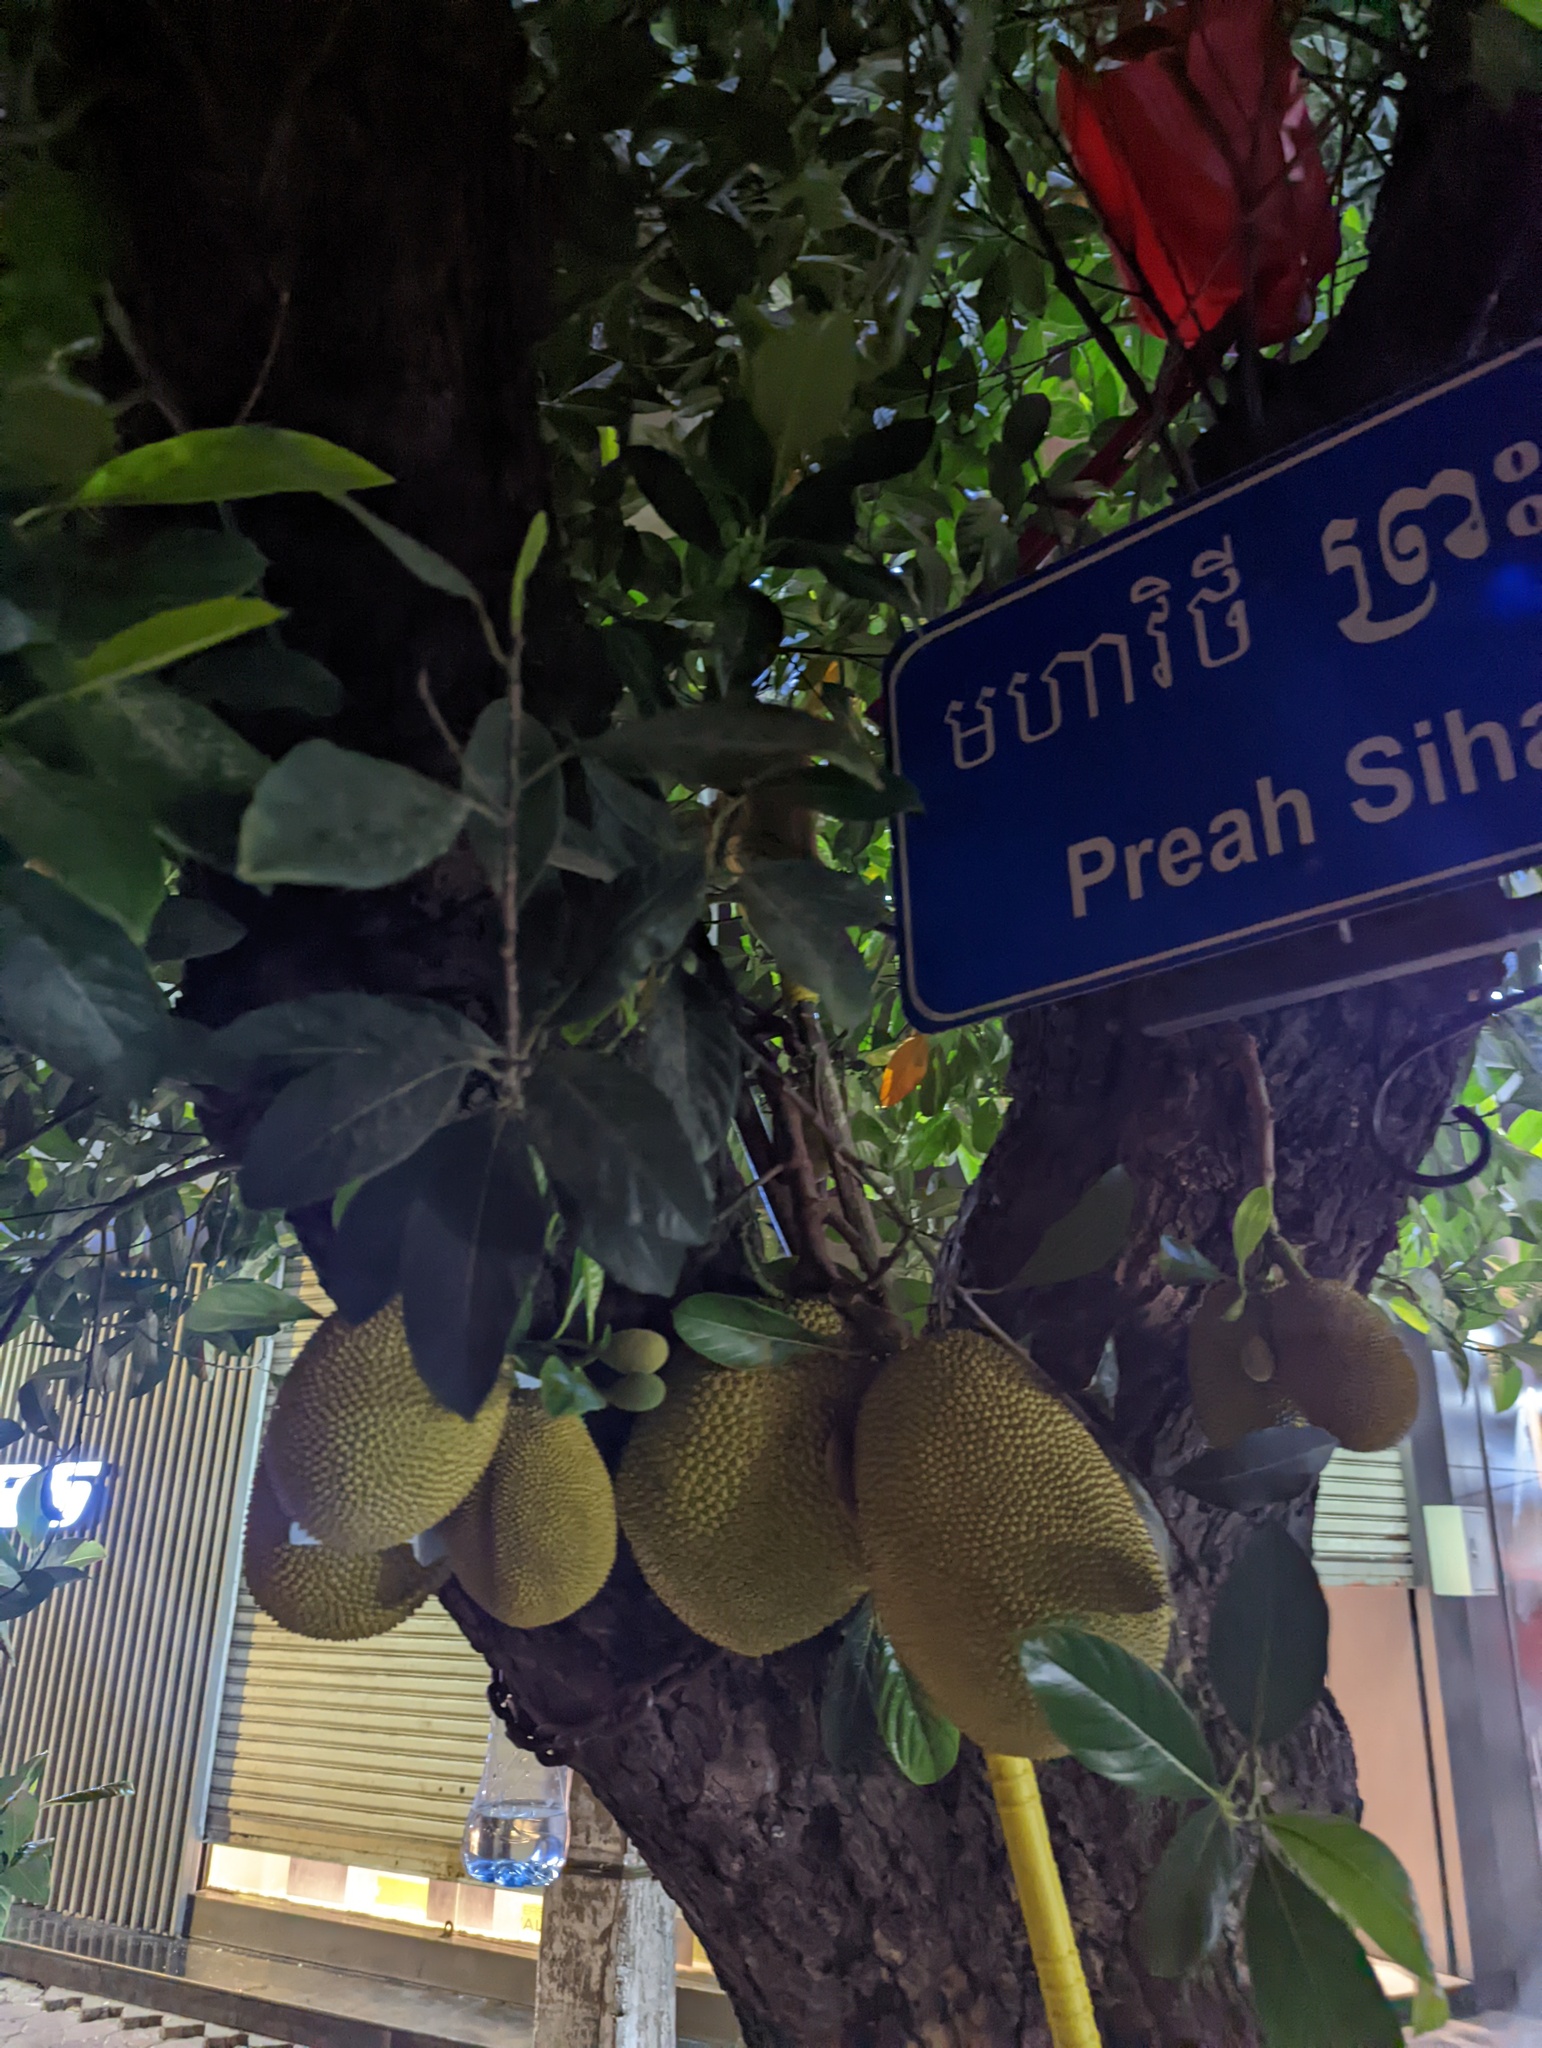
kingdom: Plantae
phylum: Tracheophyta
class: Magnoliopsida
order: Rosales
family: Moraceae
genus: Artocarpus
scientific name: Artocarpus heterophyllus
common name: Jackfruit
